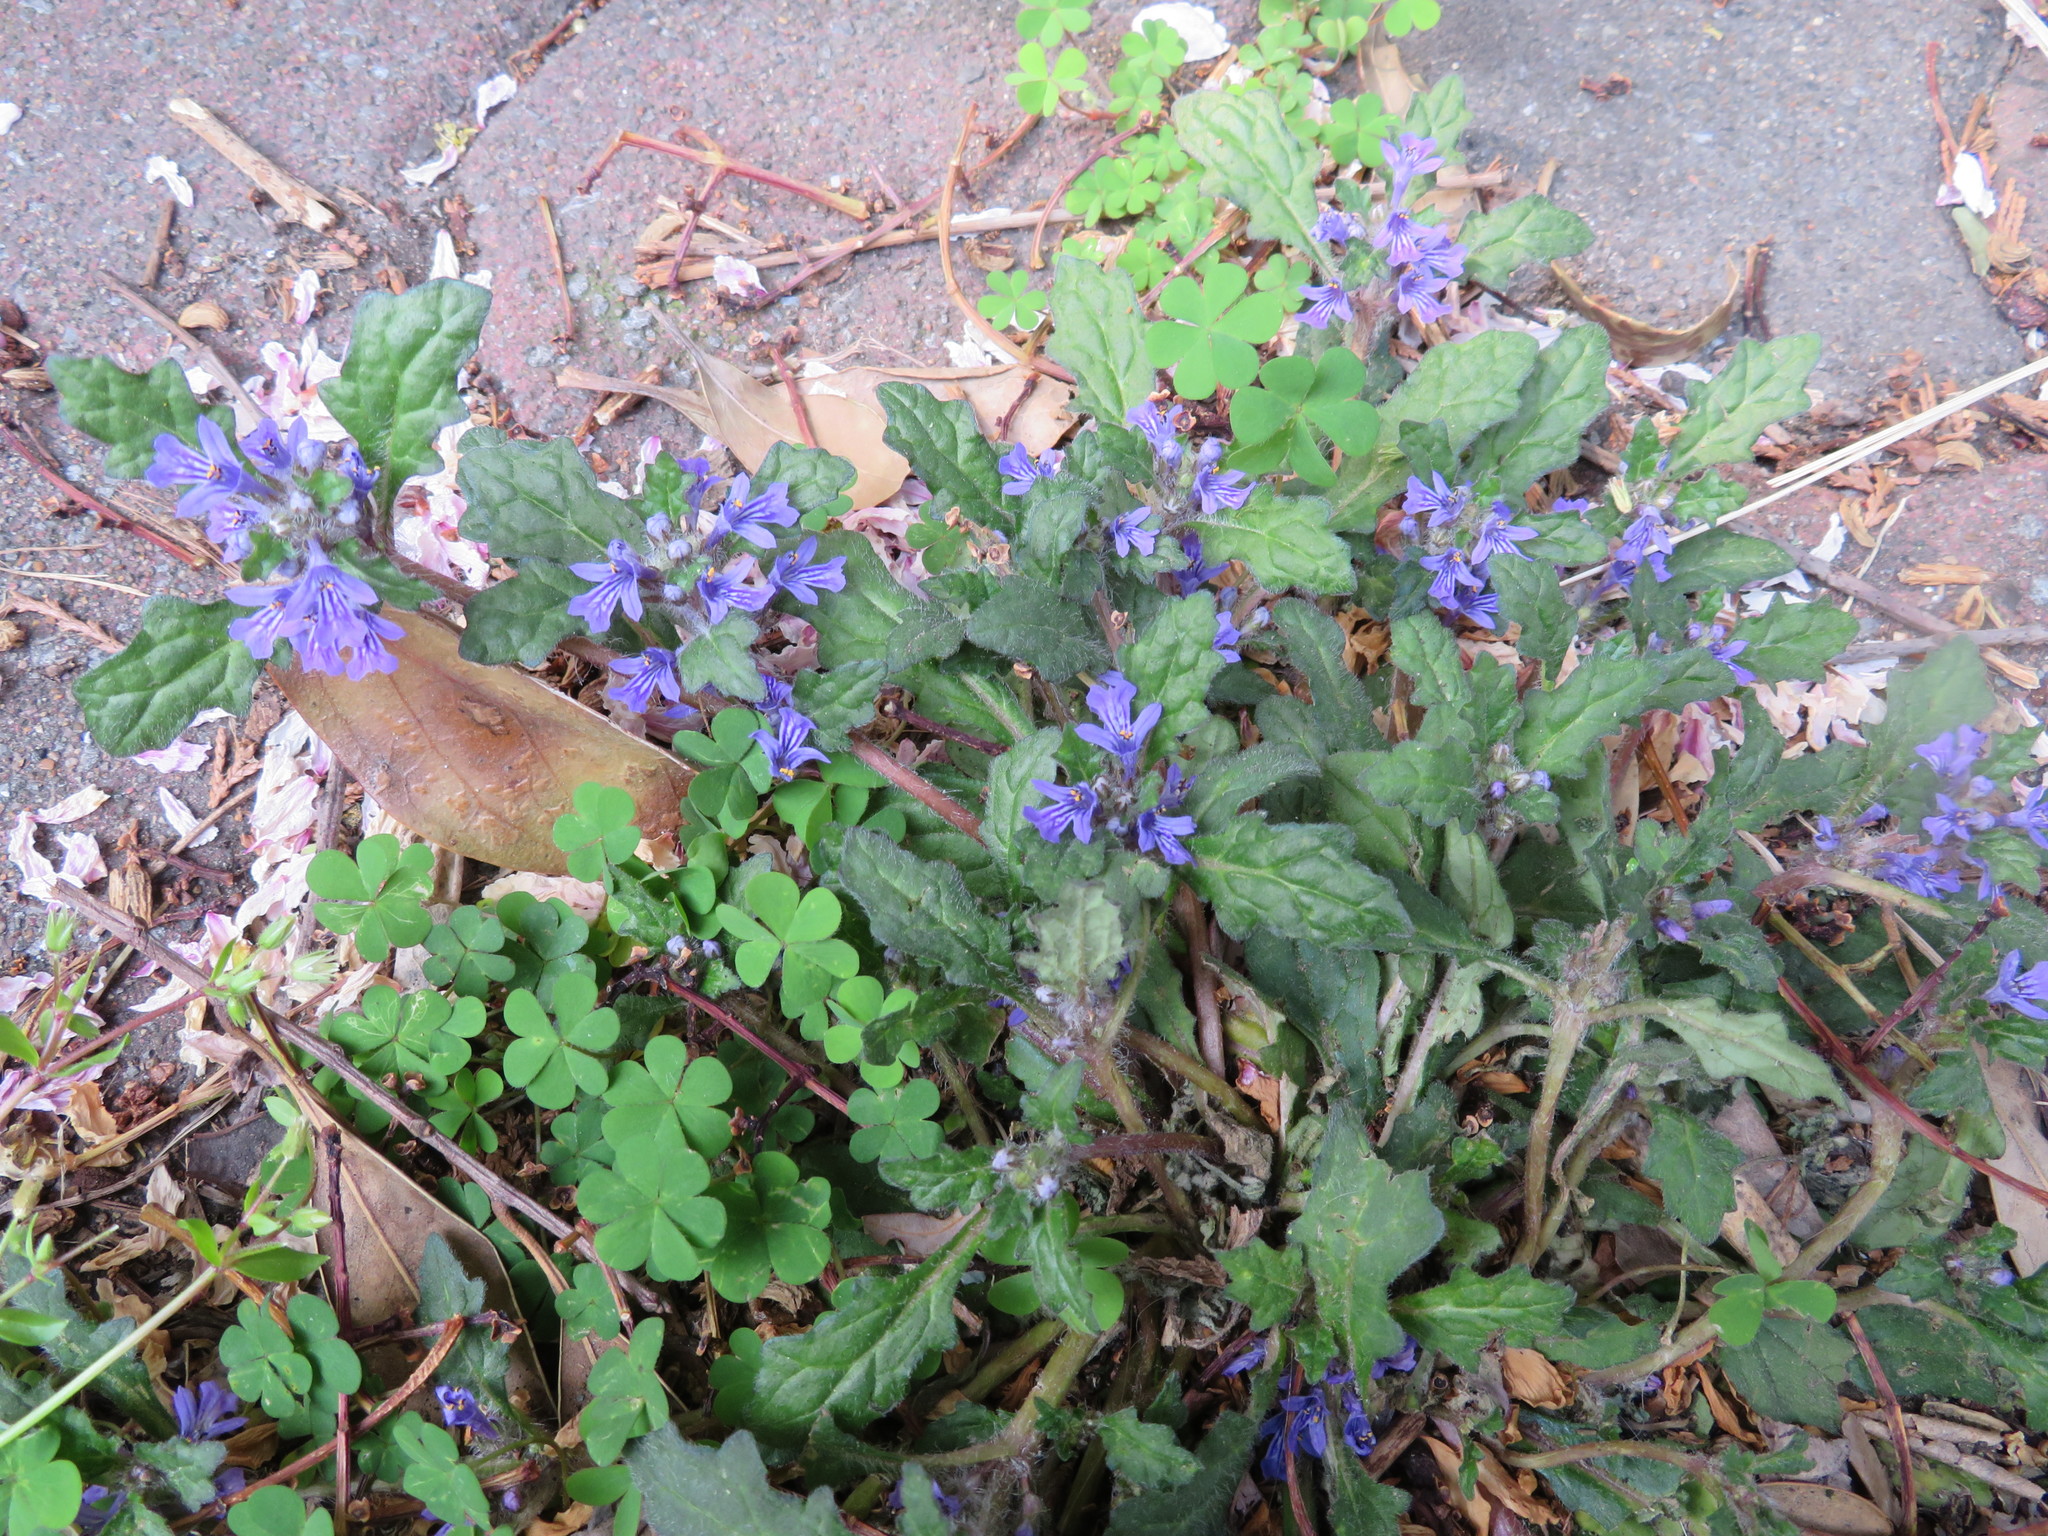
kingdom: Plantae
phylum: Tracheophyta
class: Magnoliopsida
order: Lamiales
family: Lamiaceae
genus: Ajuga
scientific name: Ajuga decumbens
